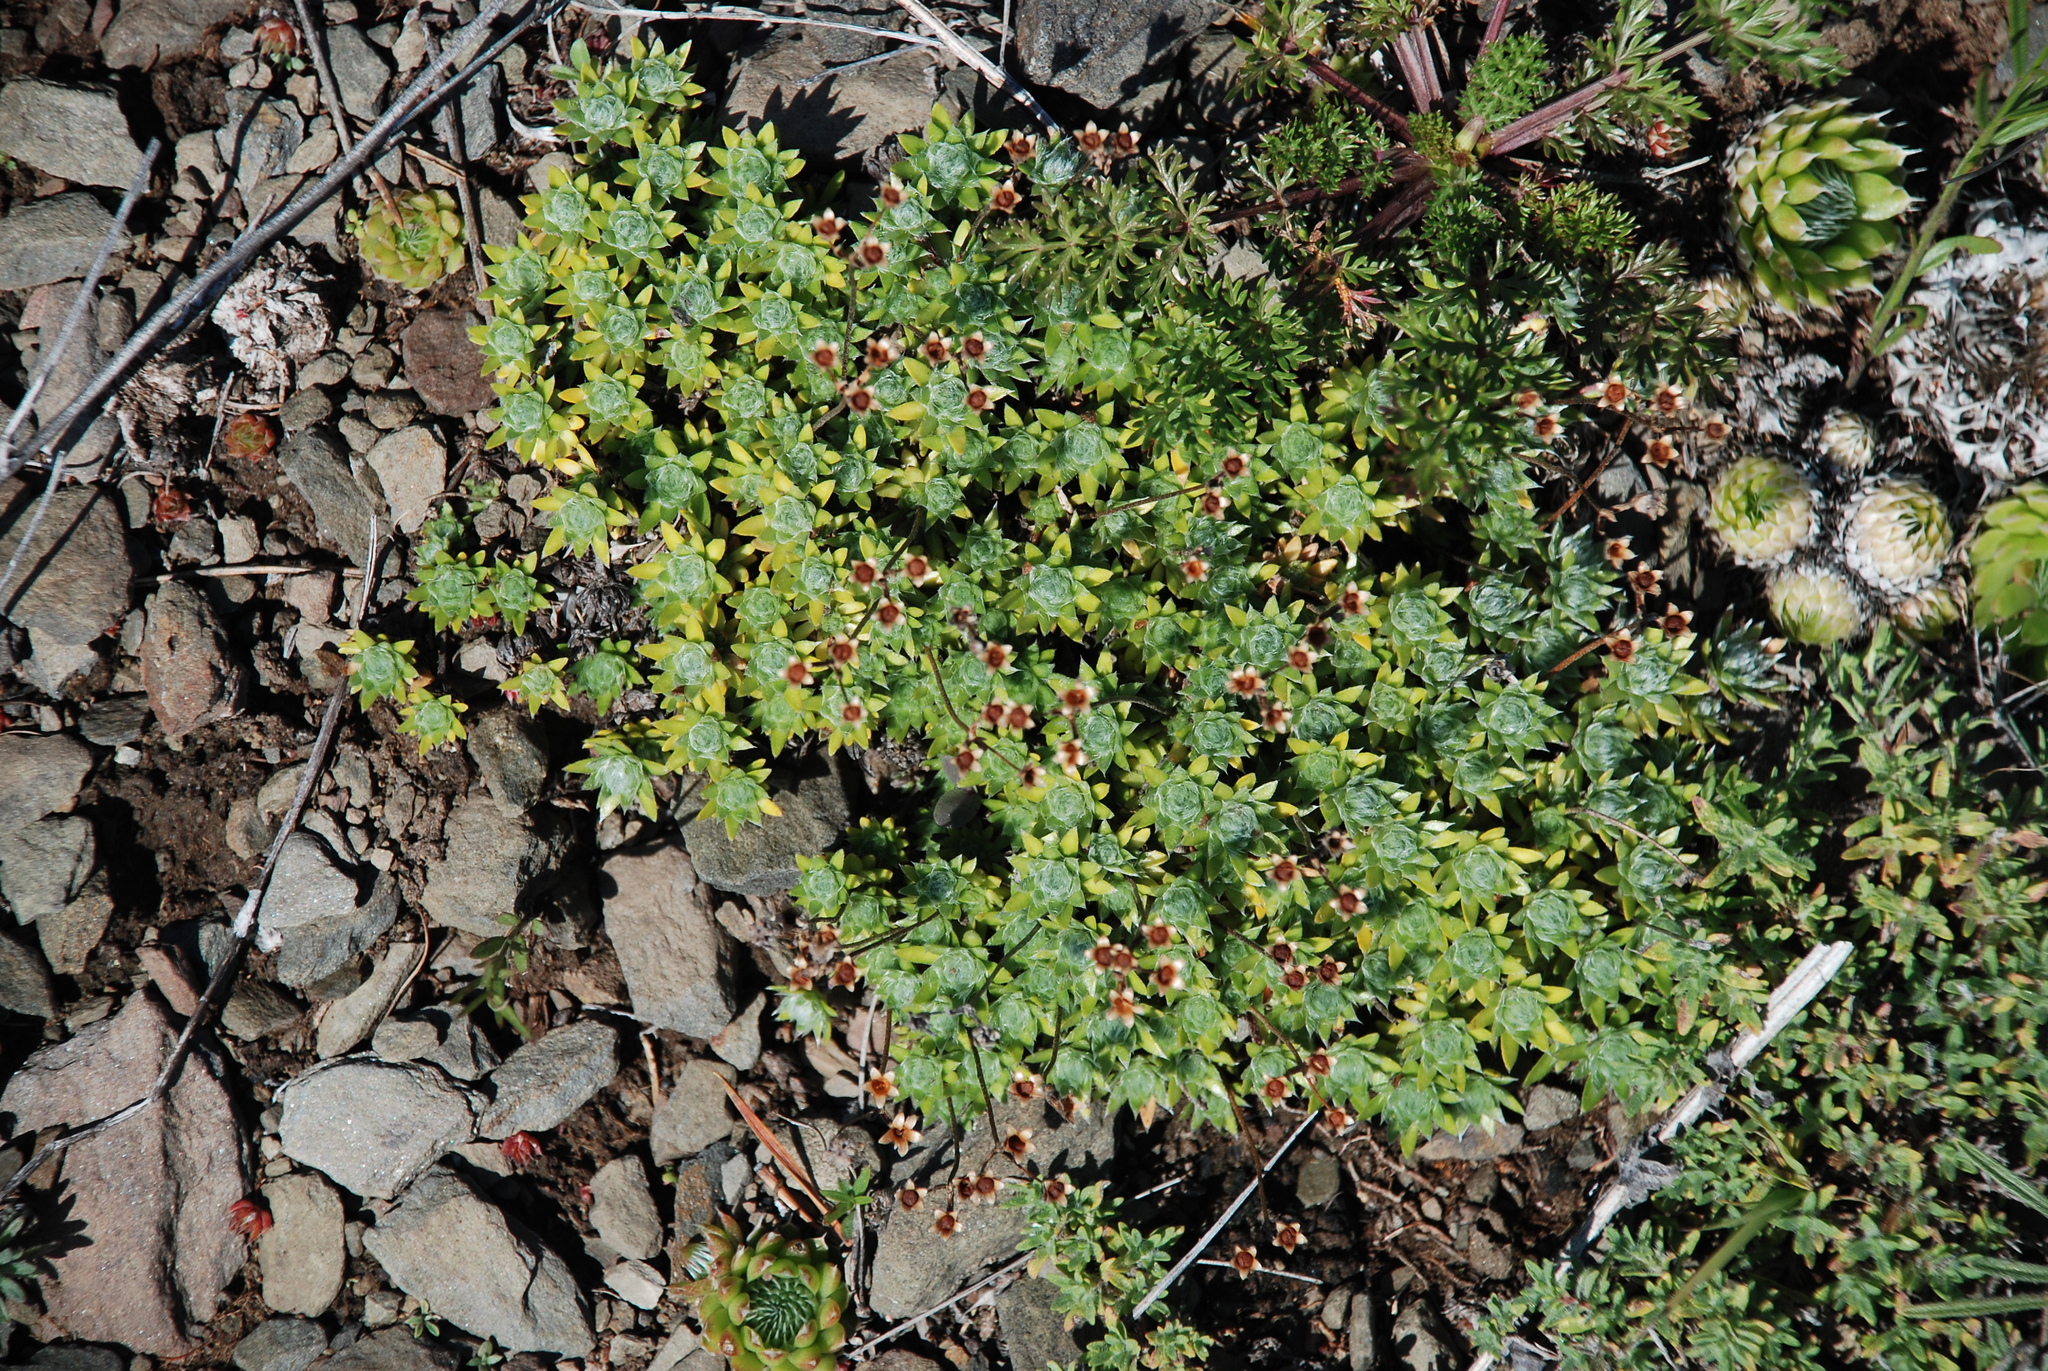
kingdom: Plantae
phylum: Tracheophyta
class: Magnoliopsida
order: Ericales
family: Primulaceae
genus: Androsace
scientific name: Androsace incana
